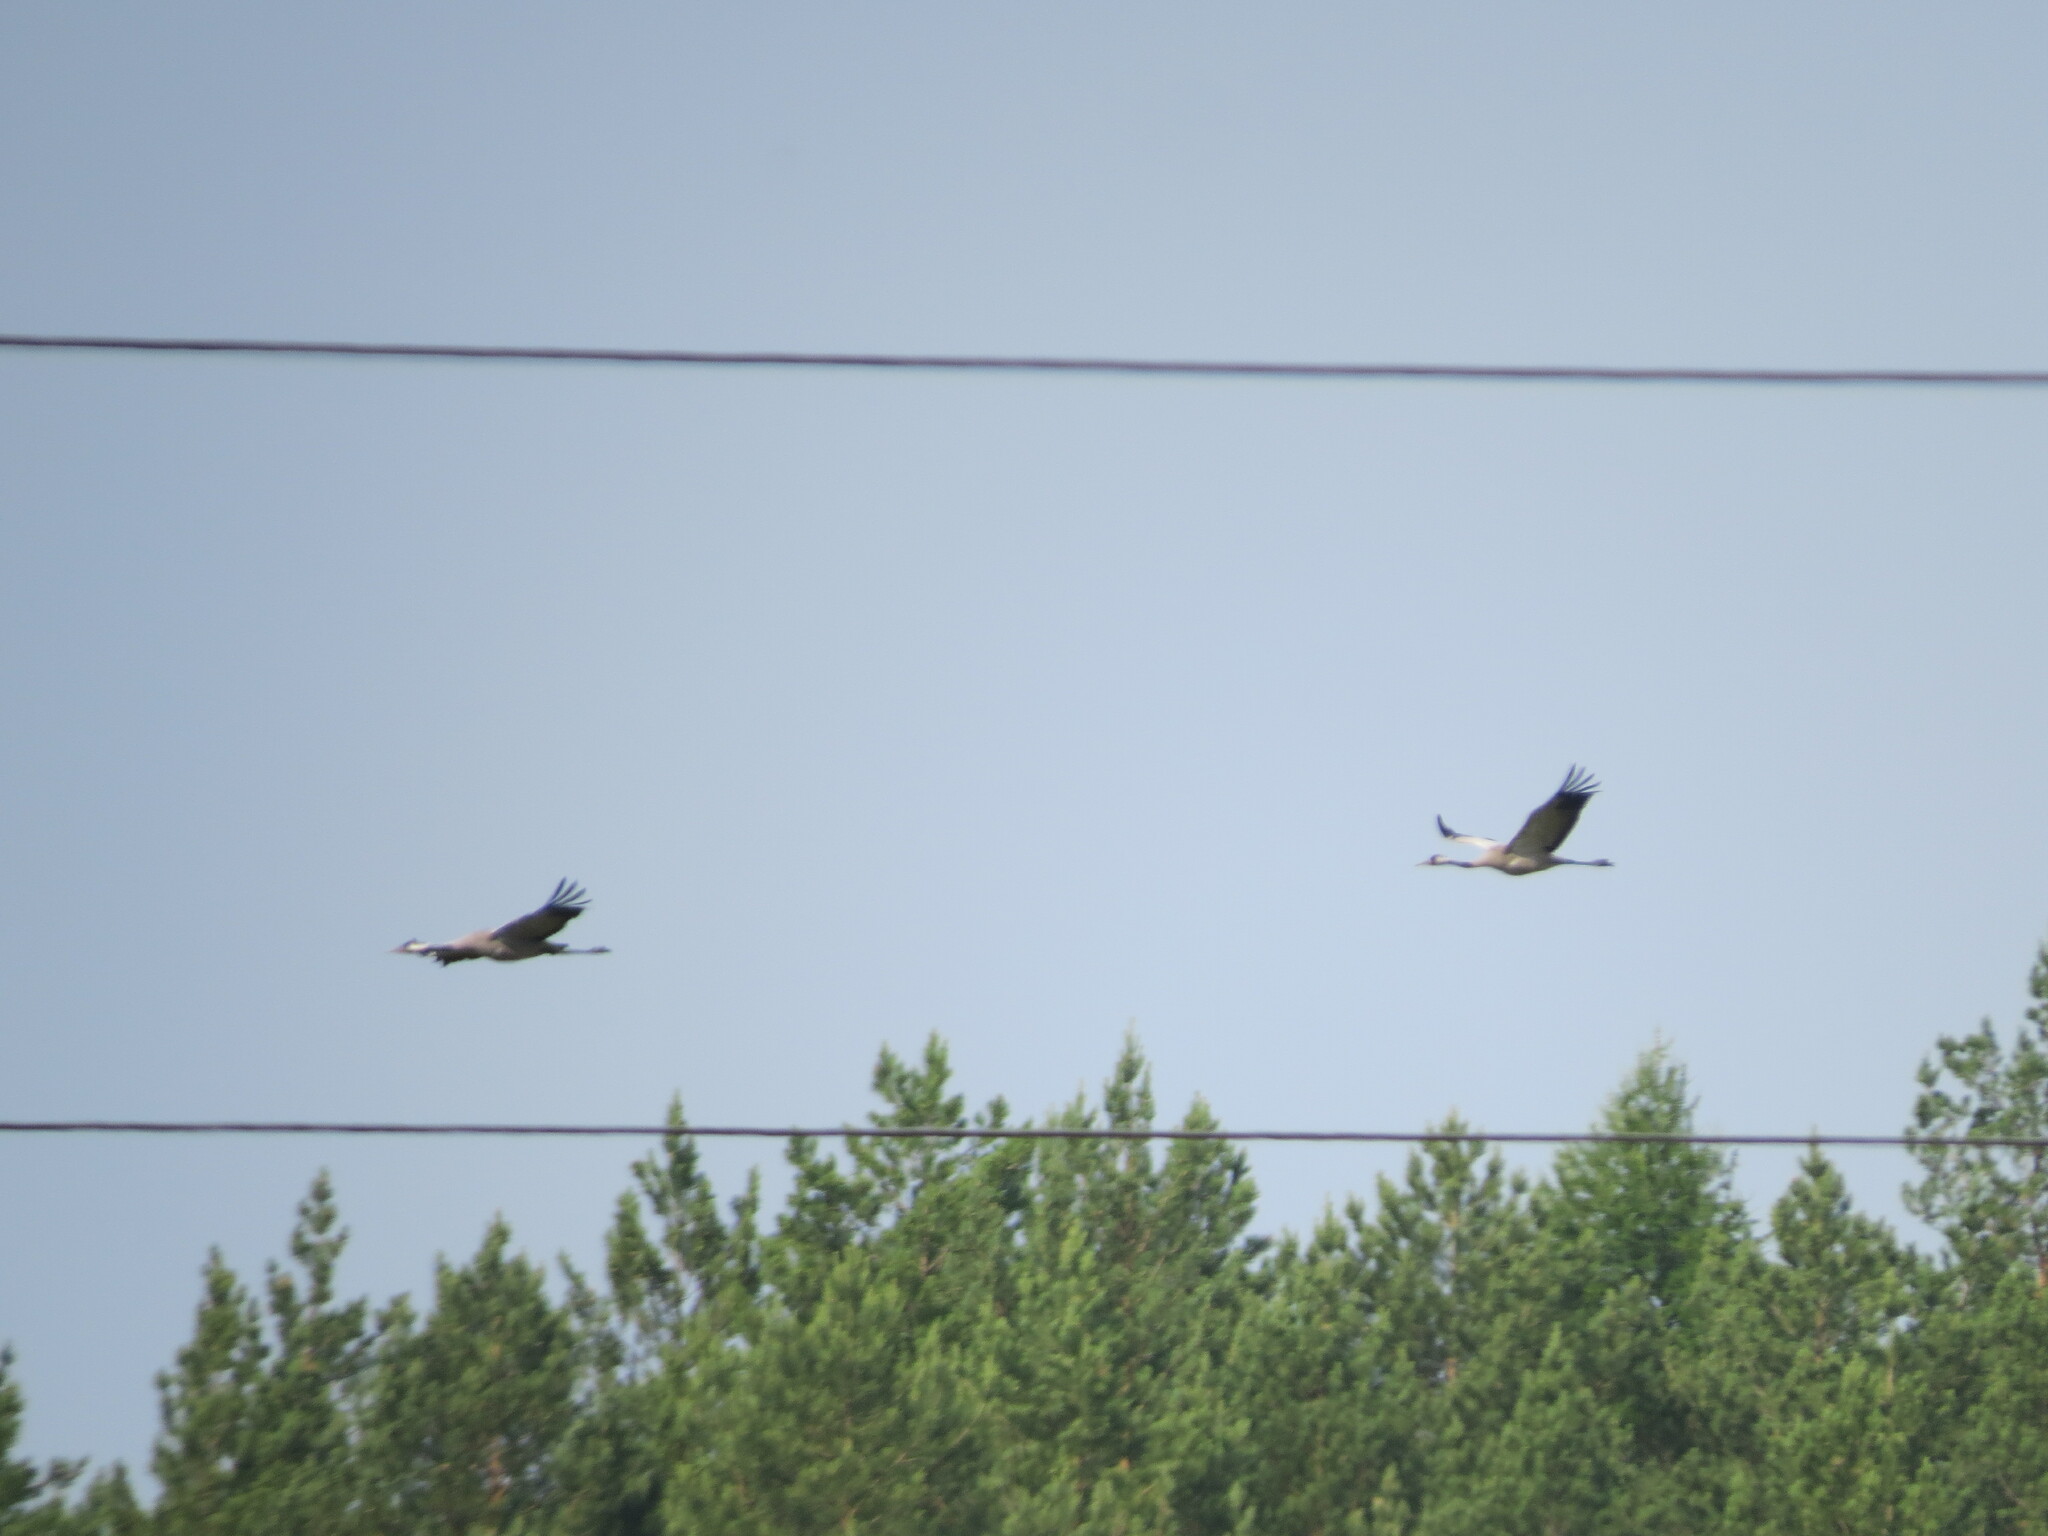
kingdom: Animalia
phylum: Chordata
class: Aves
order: Gruiformes
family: Gruidae
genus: Grus
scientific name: Grus grus
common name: Common crane
